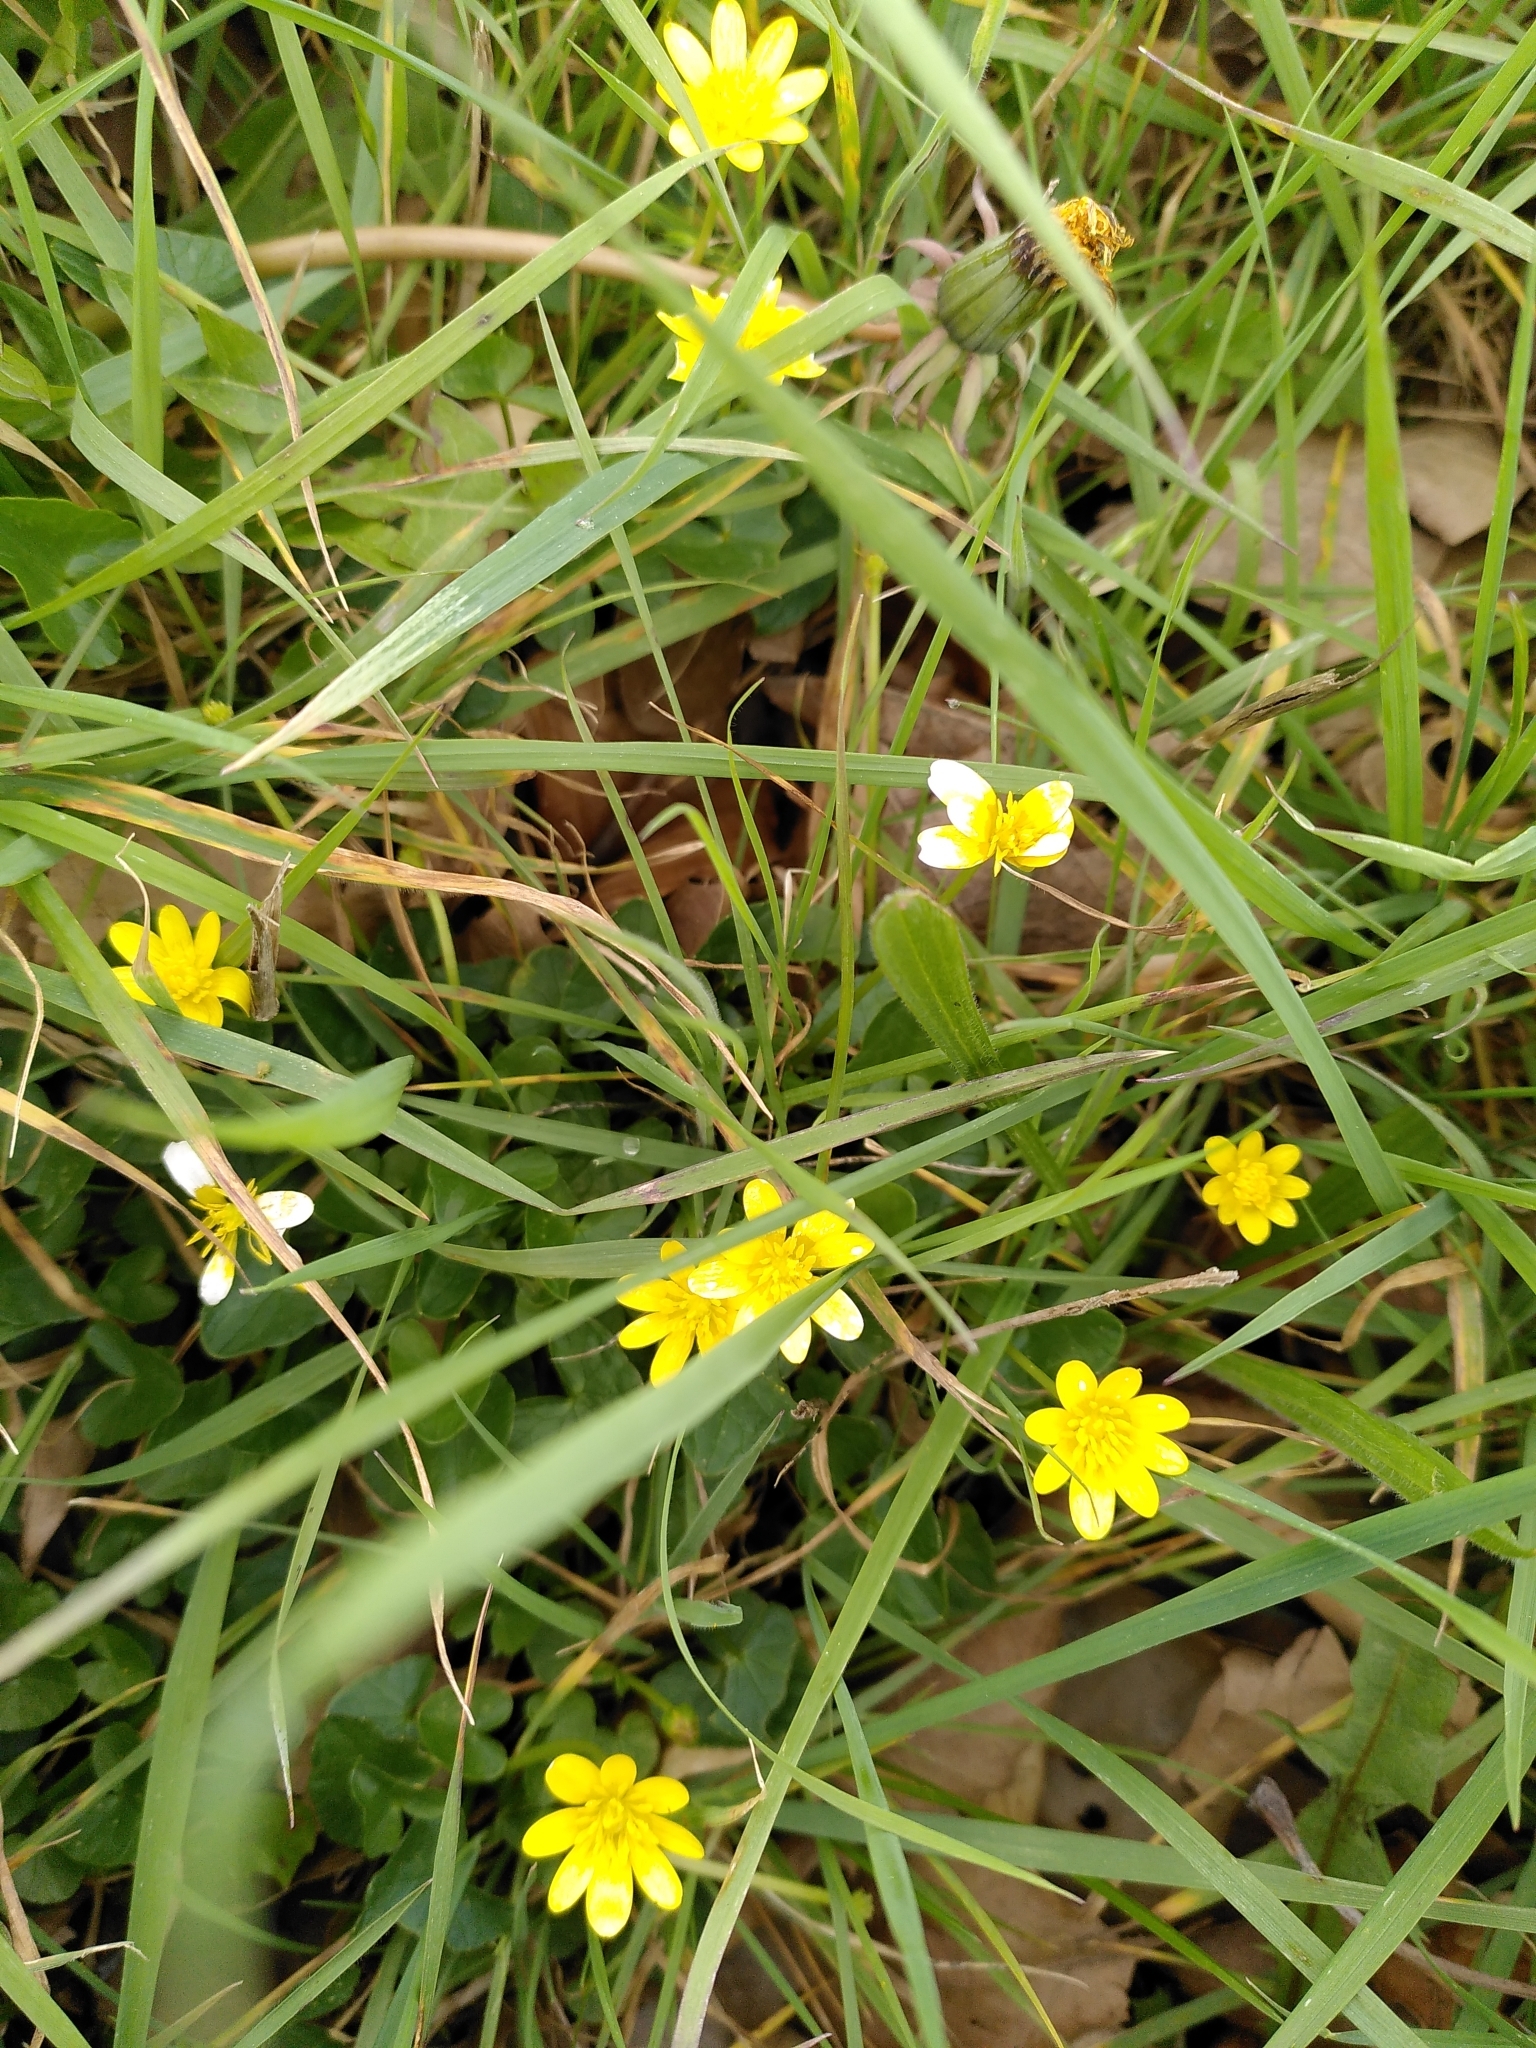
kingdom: Plantae
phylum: Tracheophyta
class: Magnoliopsida
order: Ranunculales
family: Ranunculaceae
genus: Ficaria
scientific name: Ficaria verna
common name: Lesser celandine
